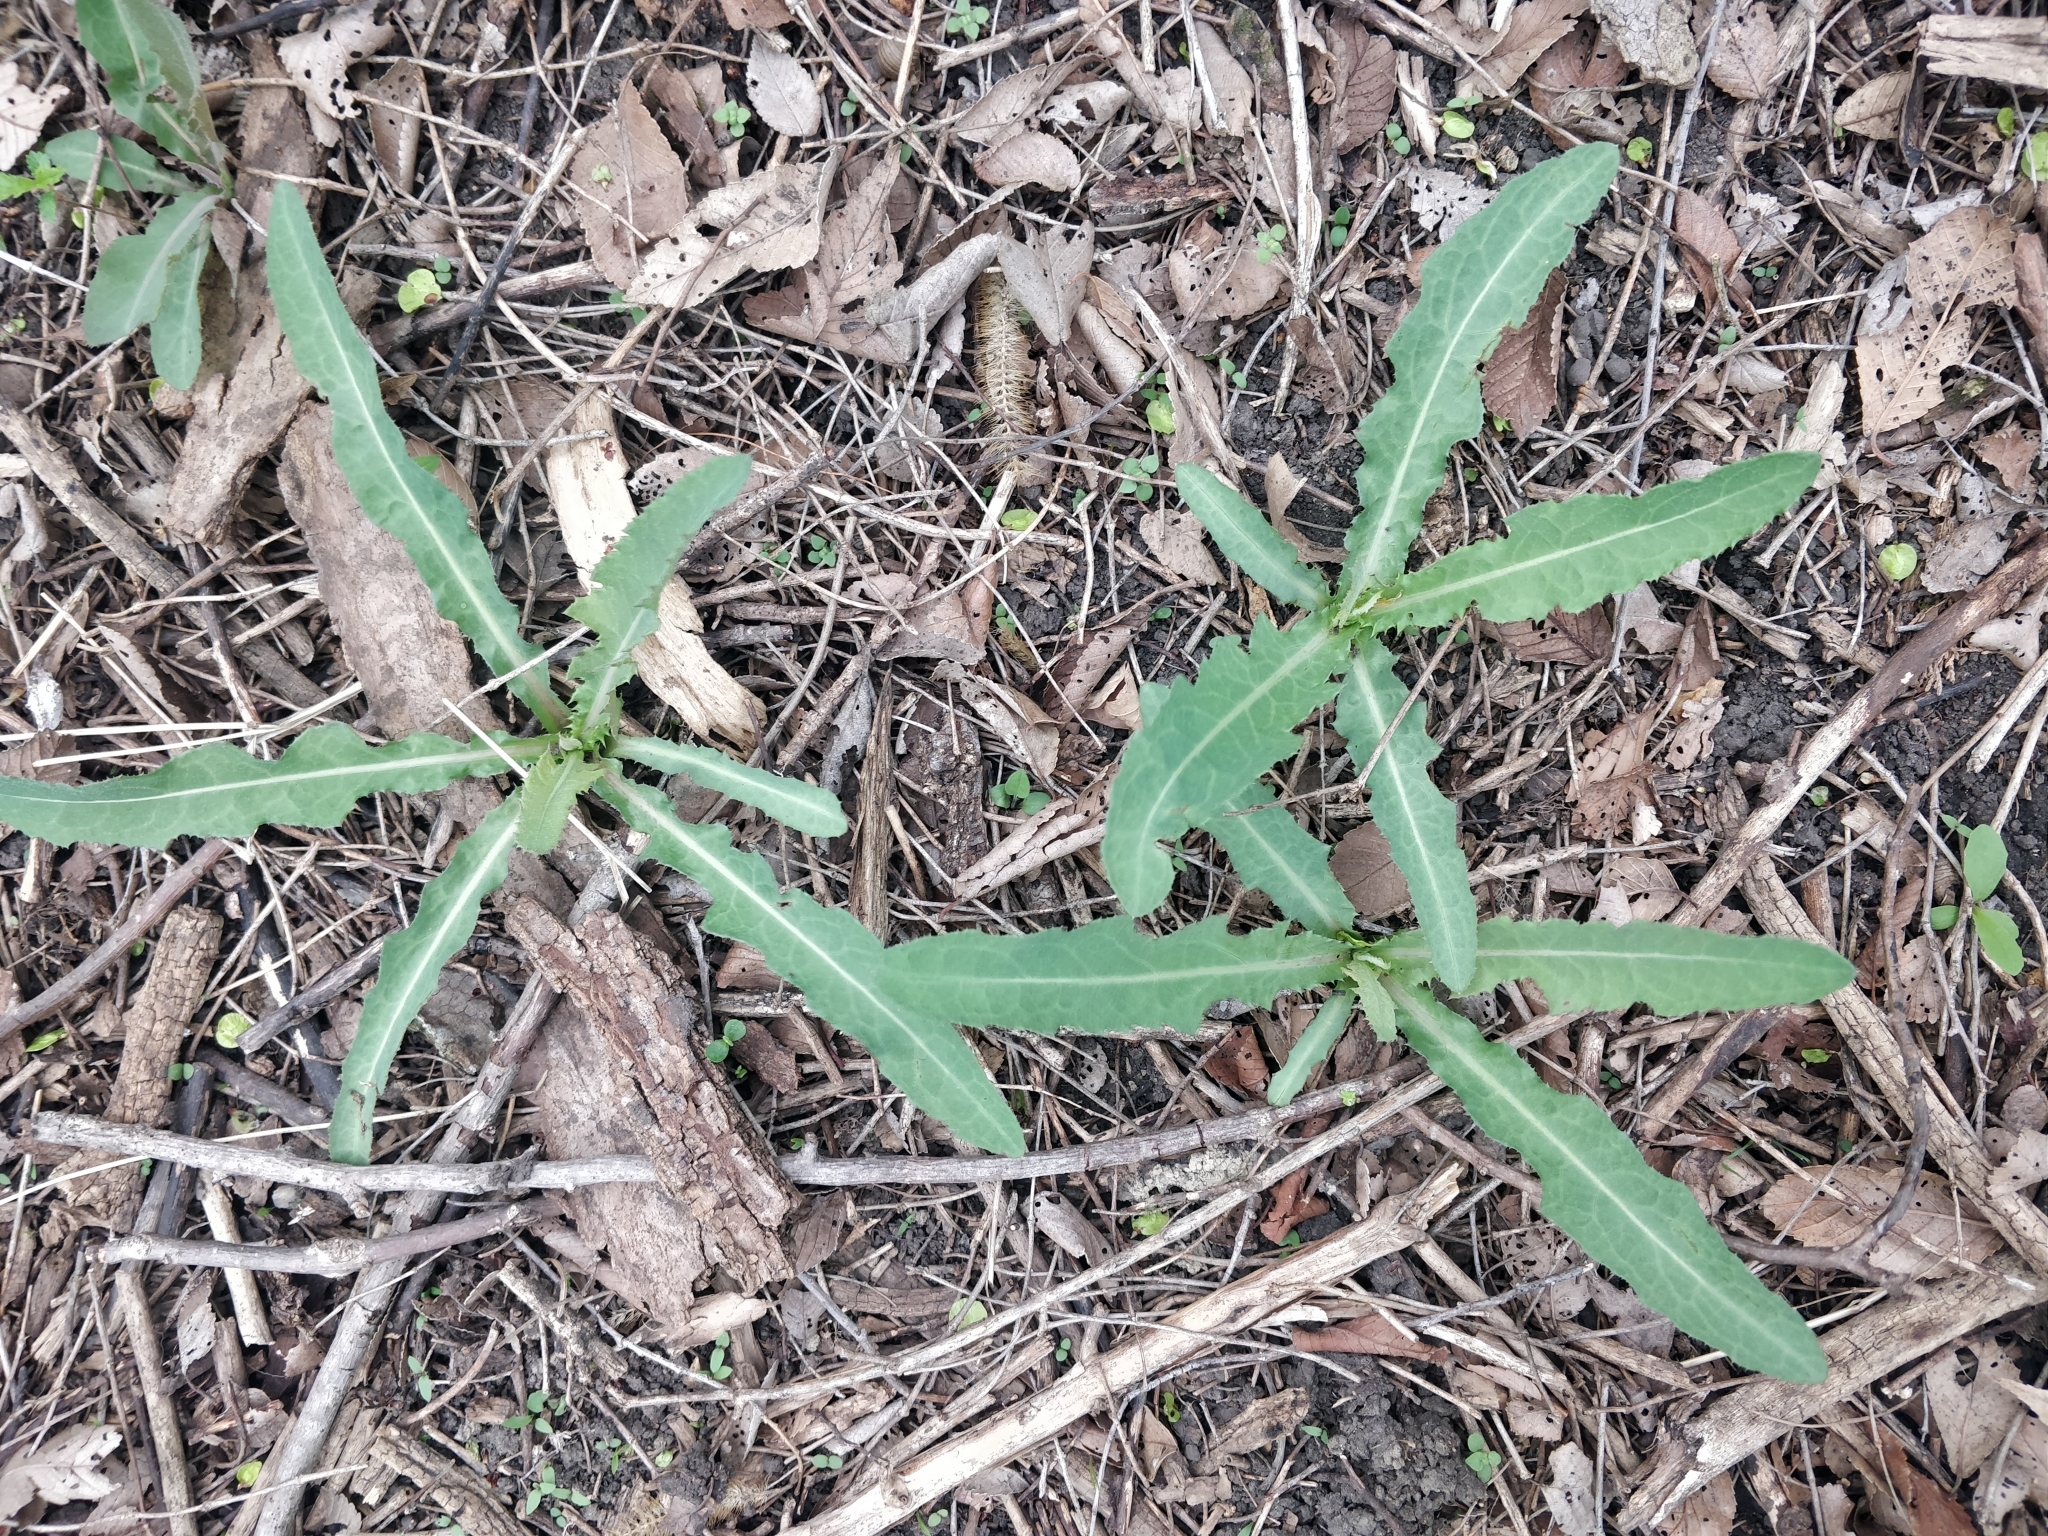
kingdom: Plantae
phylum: Tracheophyta
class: Magnoliopsida
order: Asterales
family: Asteraceae
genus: Sonchus
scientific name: Sonchus arvensis
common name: Perennial sow-thistle
